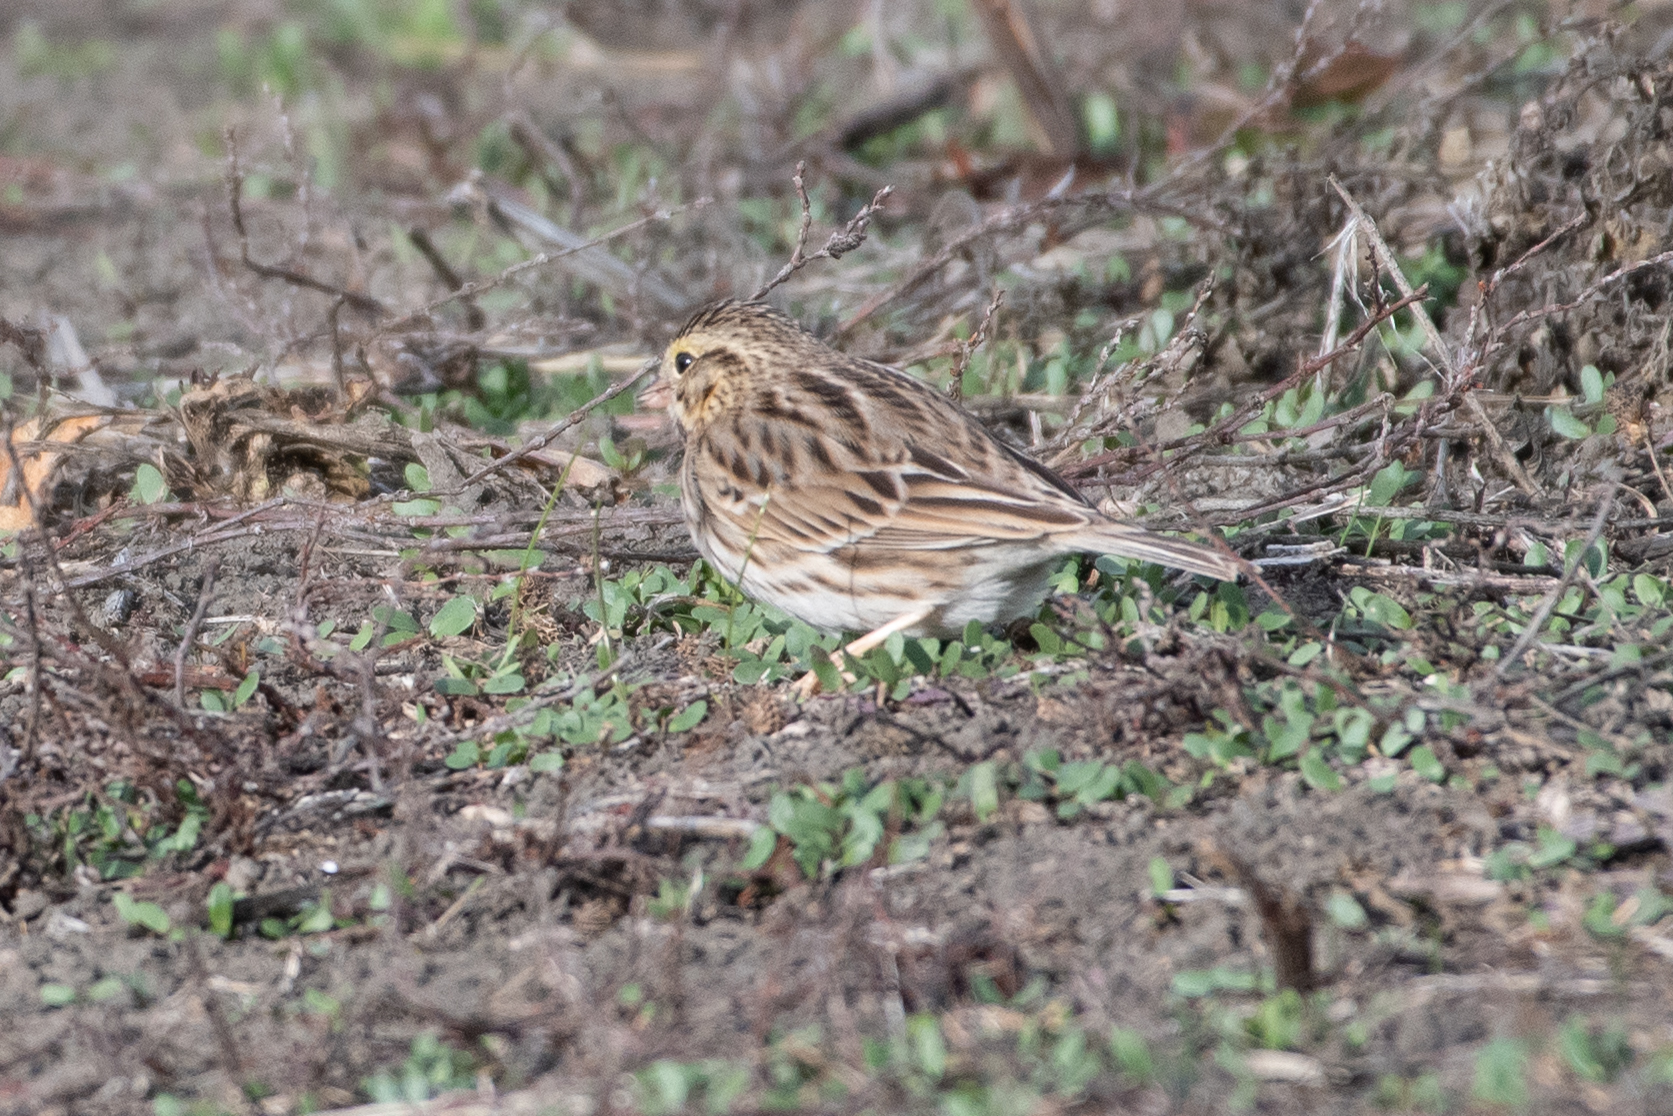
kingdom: Animalia
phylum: Chordata
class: Aves
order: Passeriformes
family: Passerellidae
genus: Passerculus
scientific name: Passerculus sandwichensis
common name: Savannah sparrow
